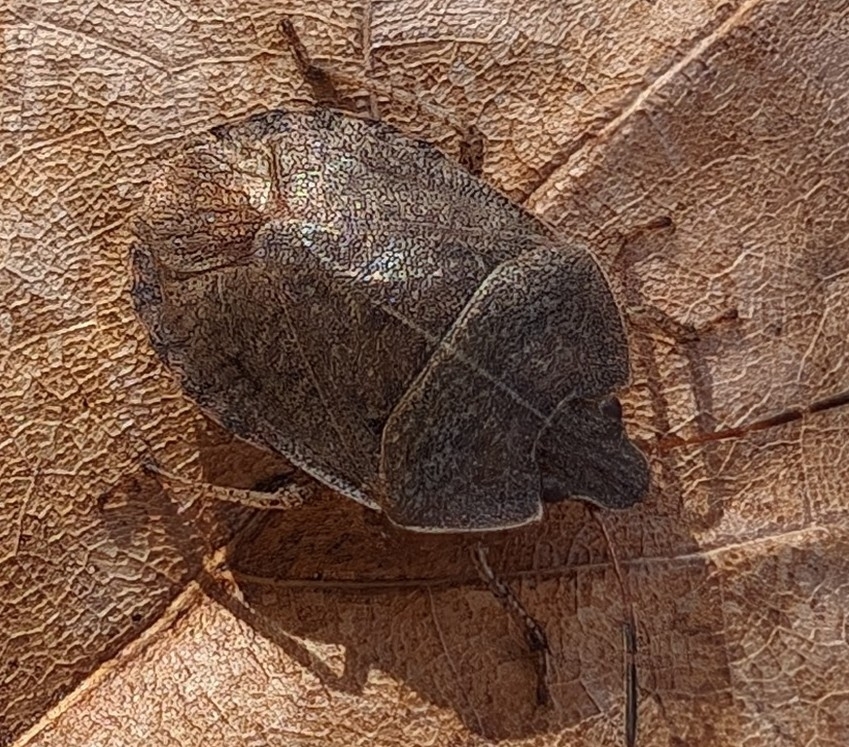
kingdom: Animalia
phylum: Arthropoda
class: Insecta
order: Hemiptera
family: Pentatomidae
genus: Menecles
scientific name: Menecles insertus
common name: Elf shoe stink bug
